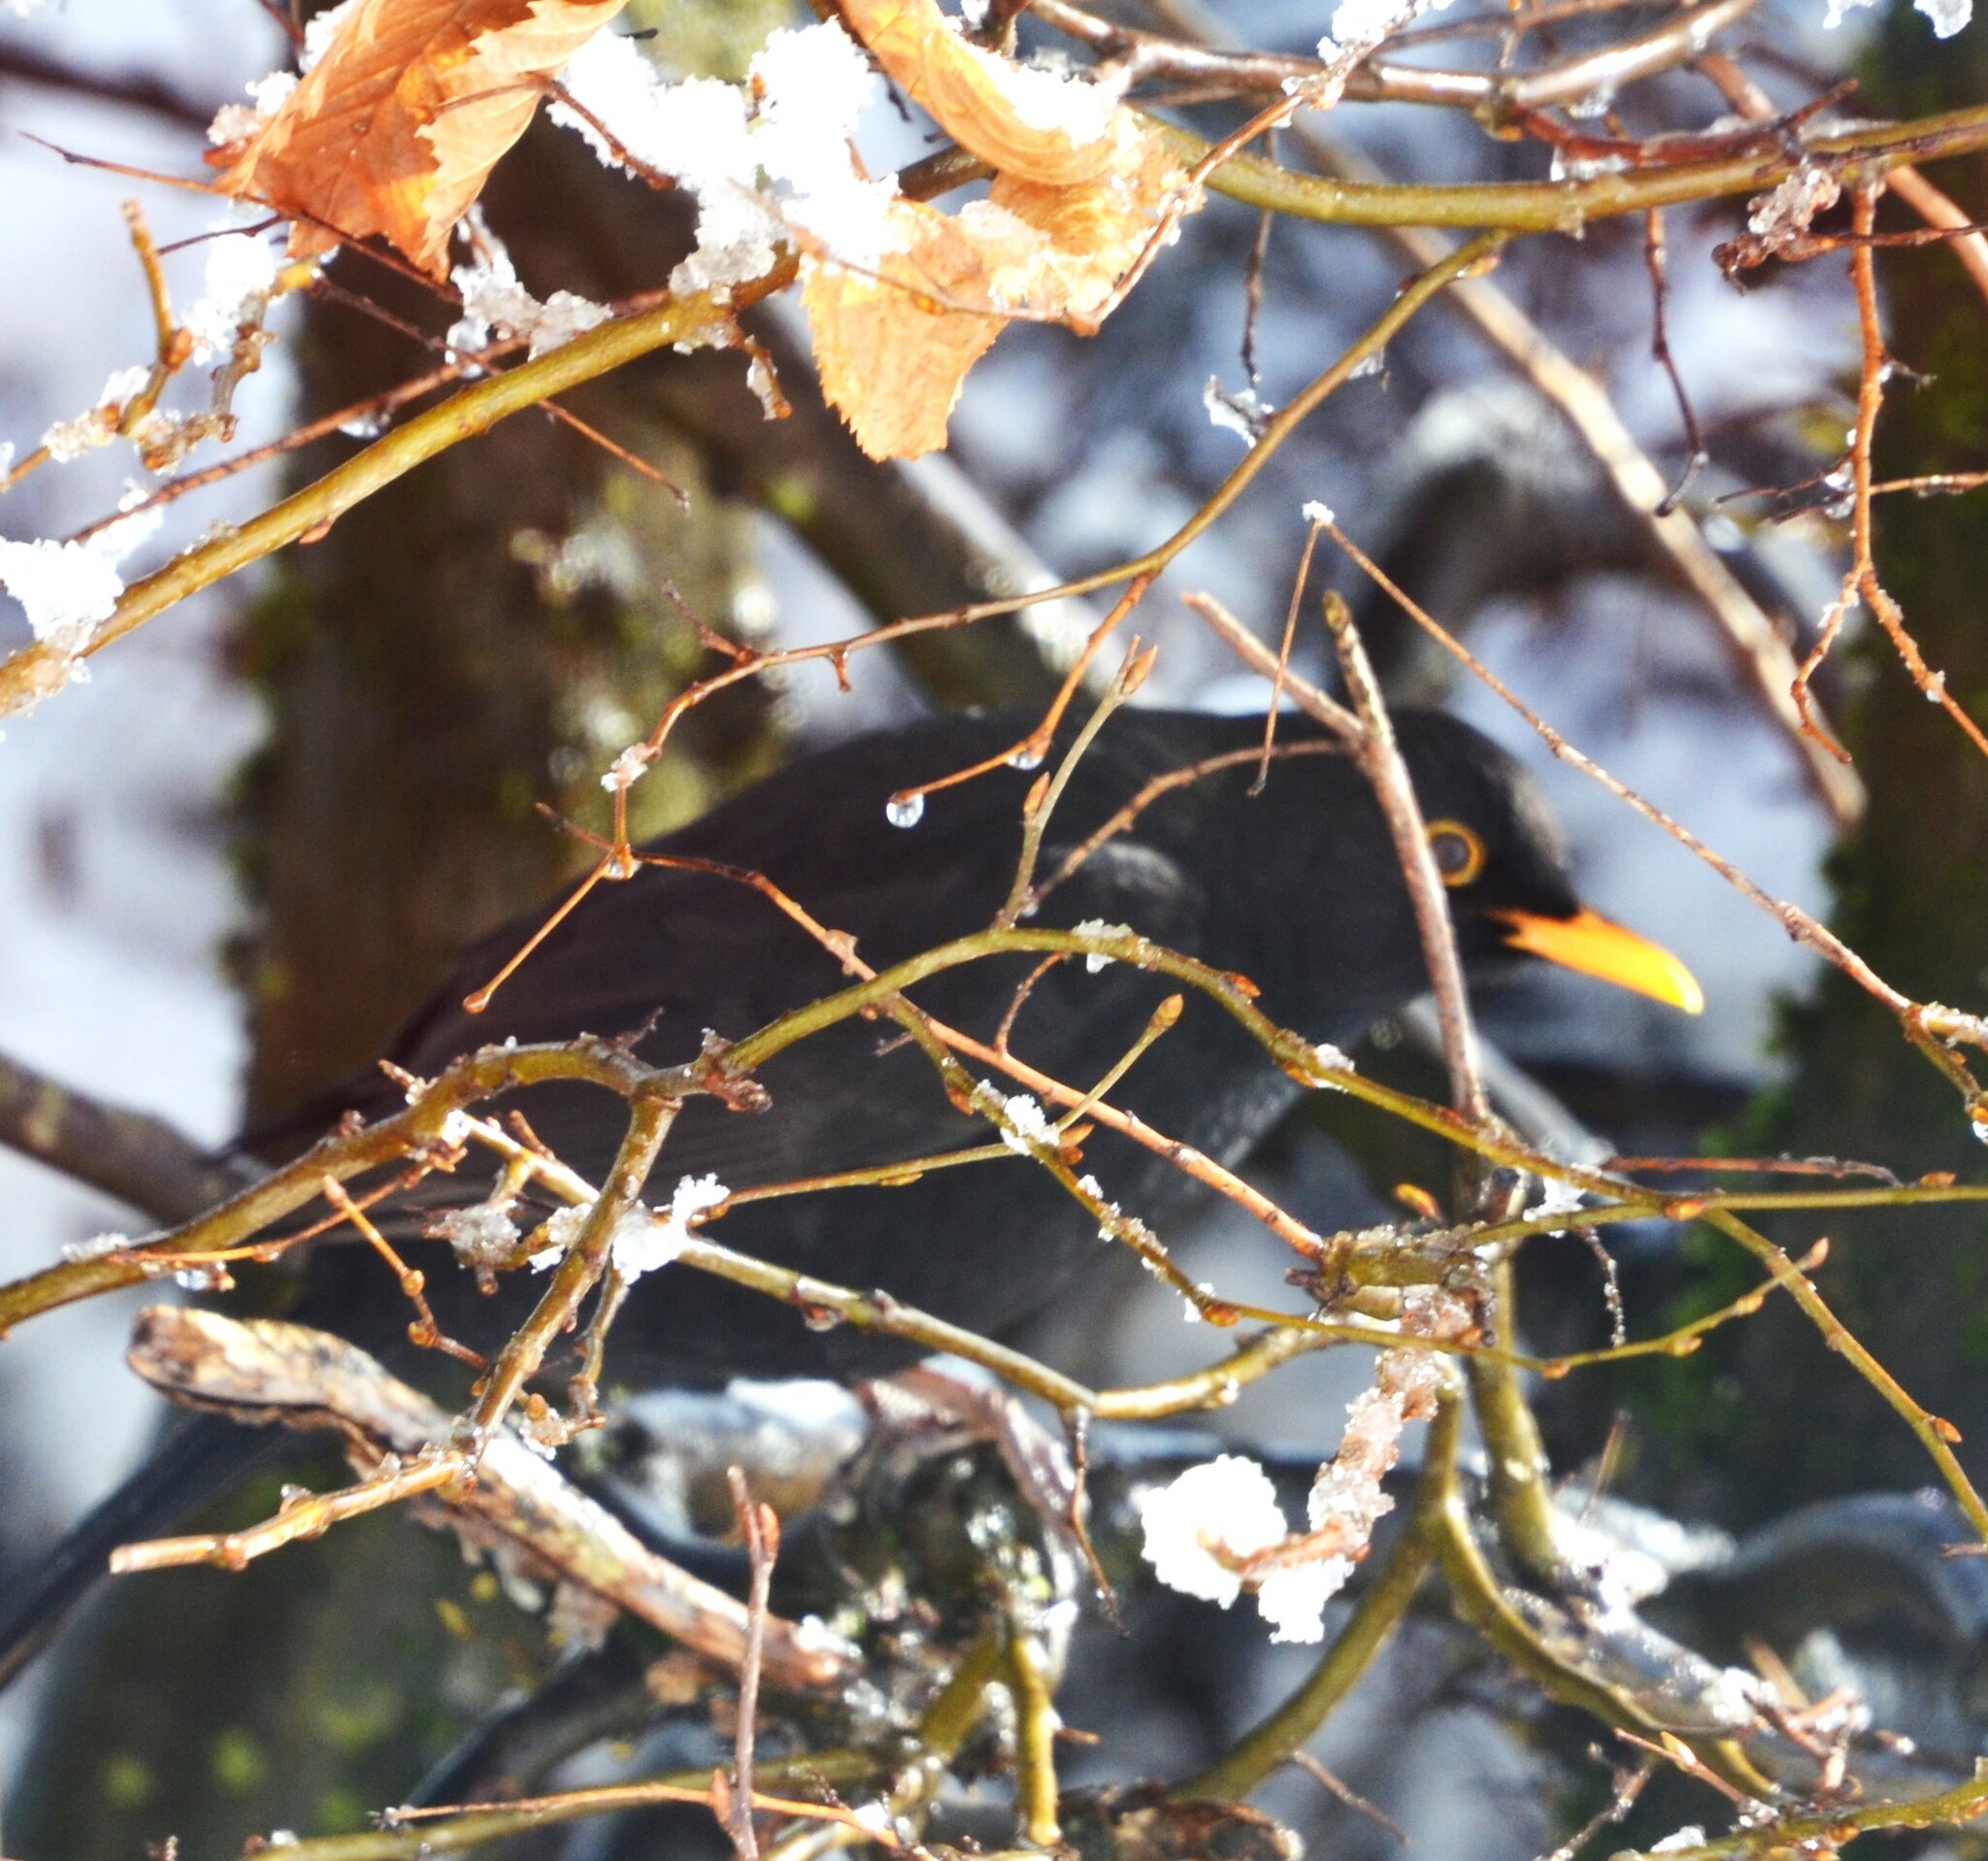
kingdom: Animalia
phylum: Chordata
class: Aves
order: Passeriformes
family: Turdidae
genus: Turdus
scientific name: Turdus merula
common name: Common blackbird
